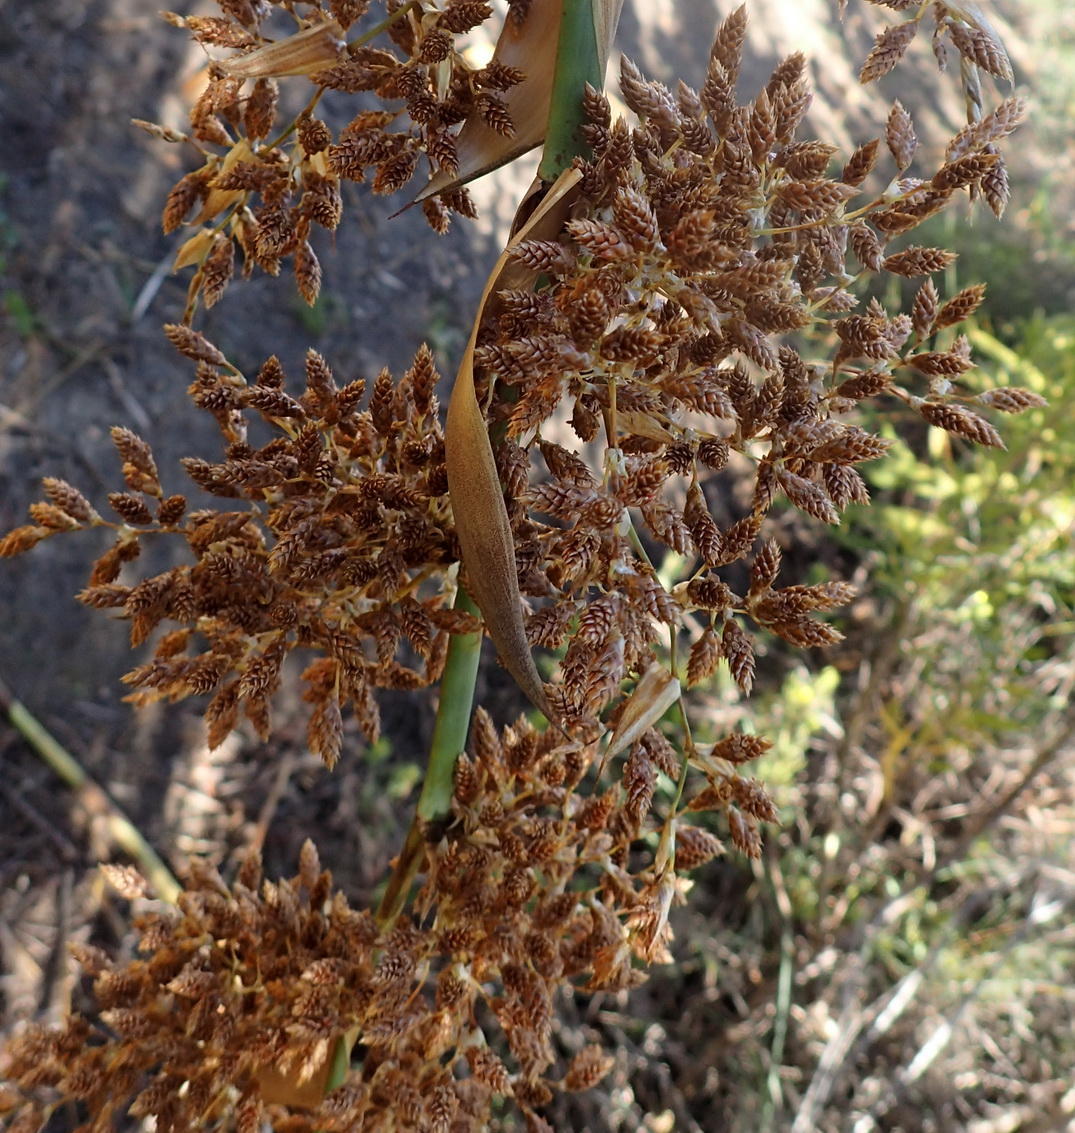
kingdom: Plantae
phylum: Tracheophyta
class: Liliopsida
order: Poales
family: Restionaceae
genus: Cannomois
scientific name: Cannomois grandis
